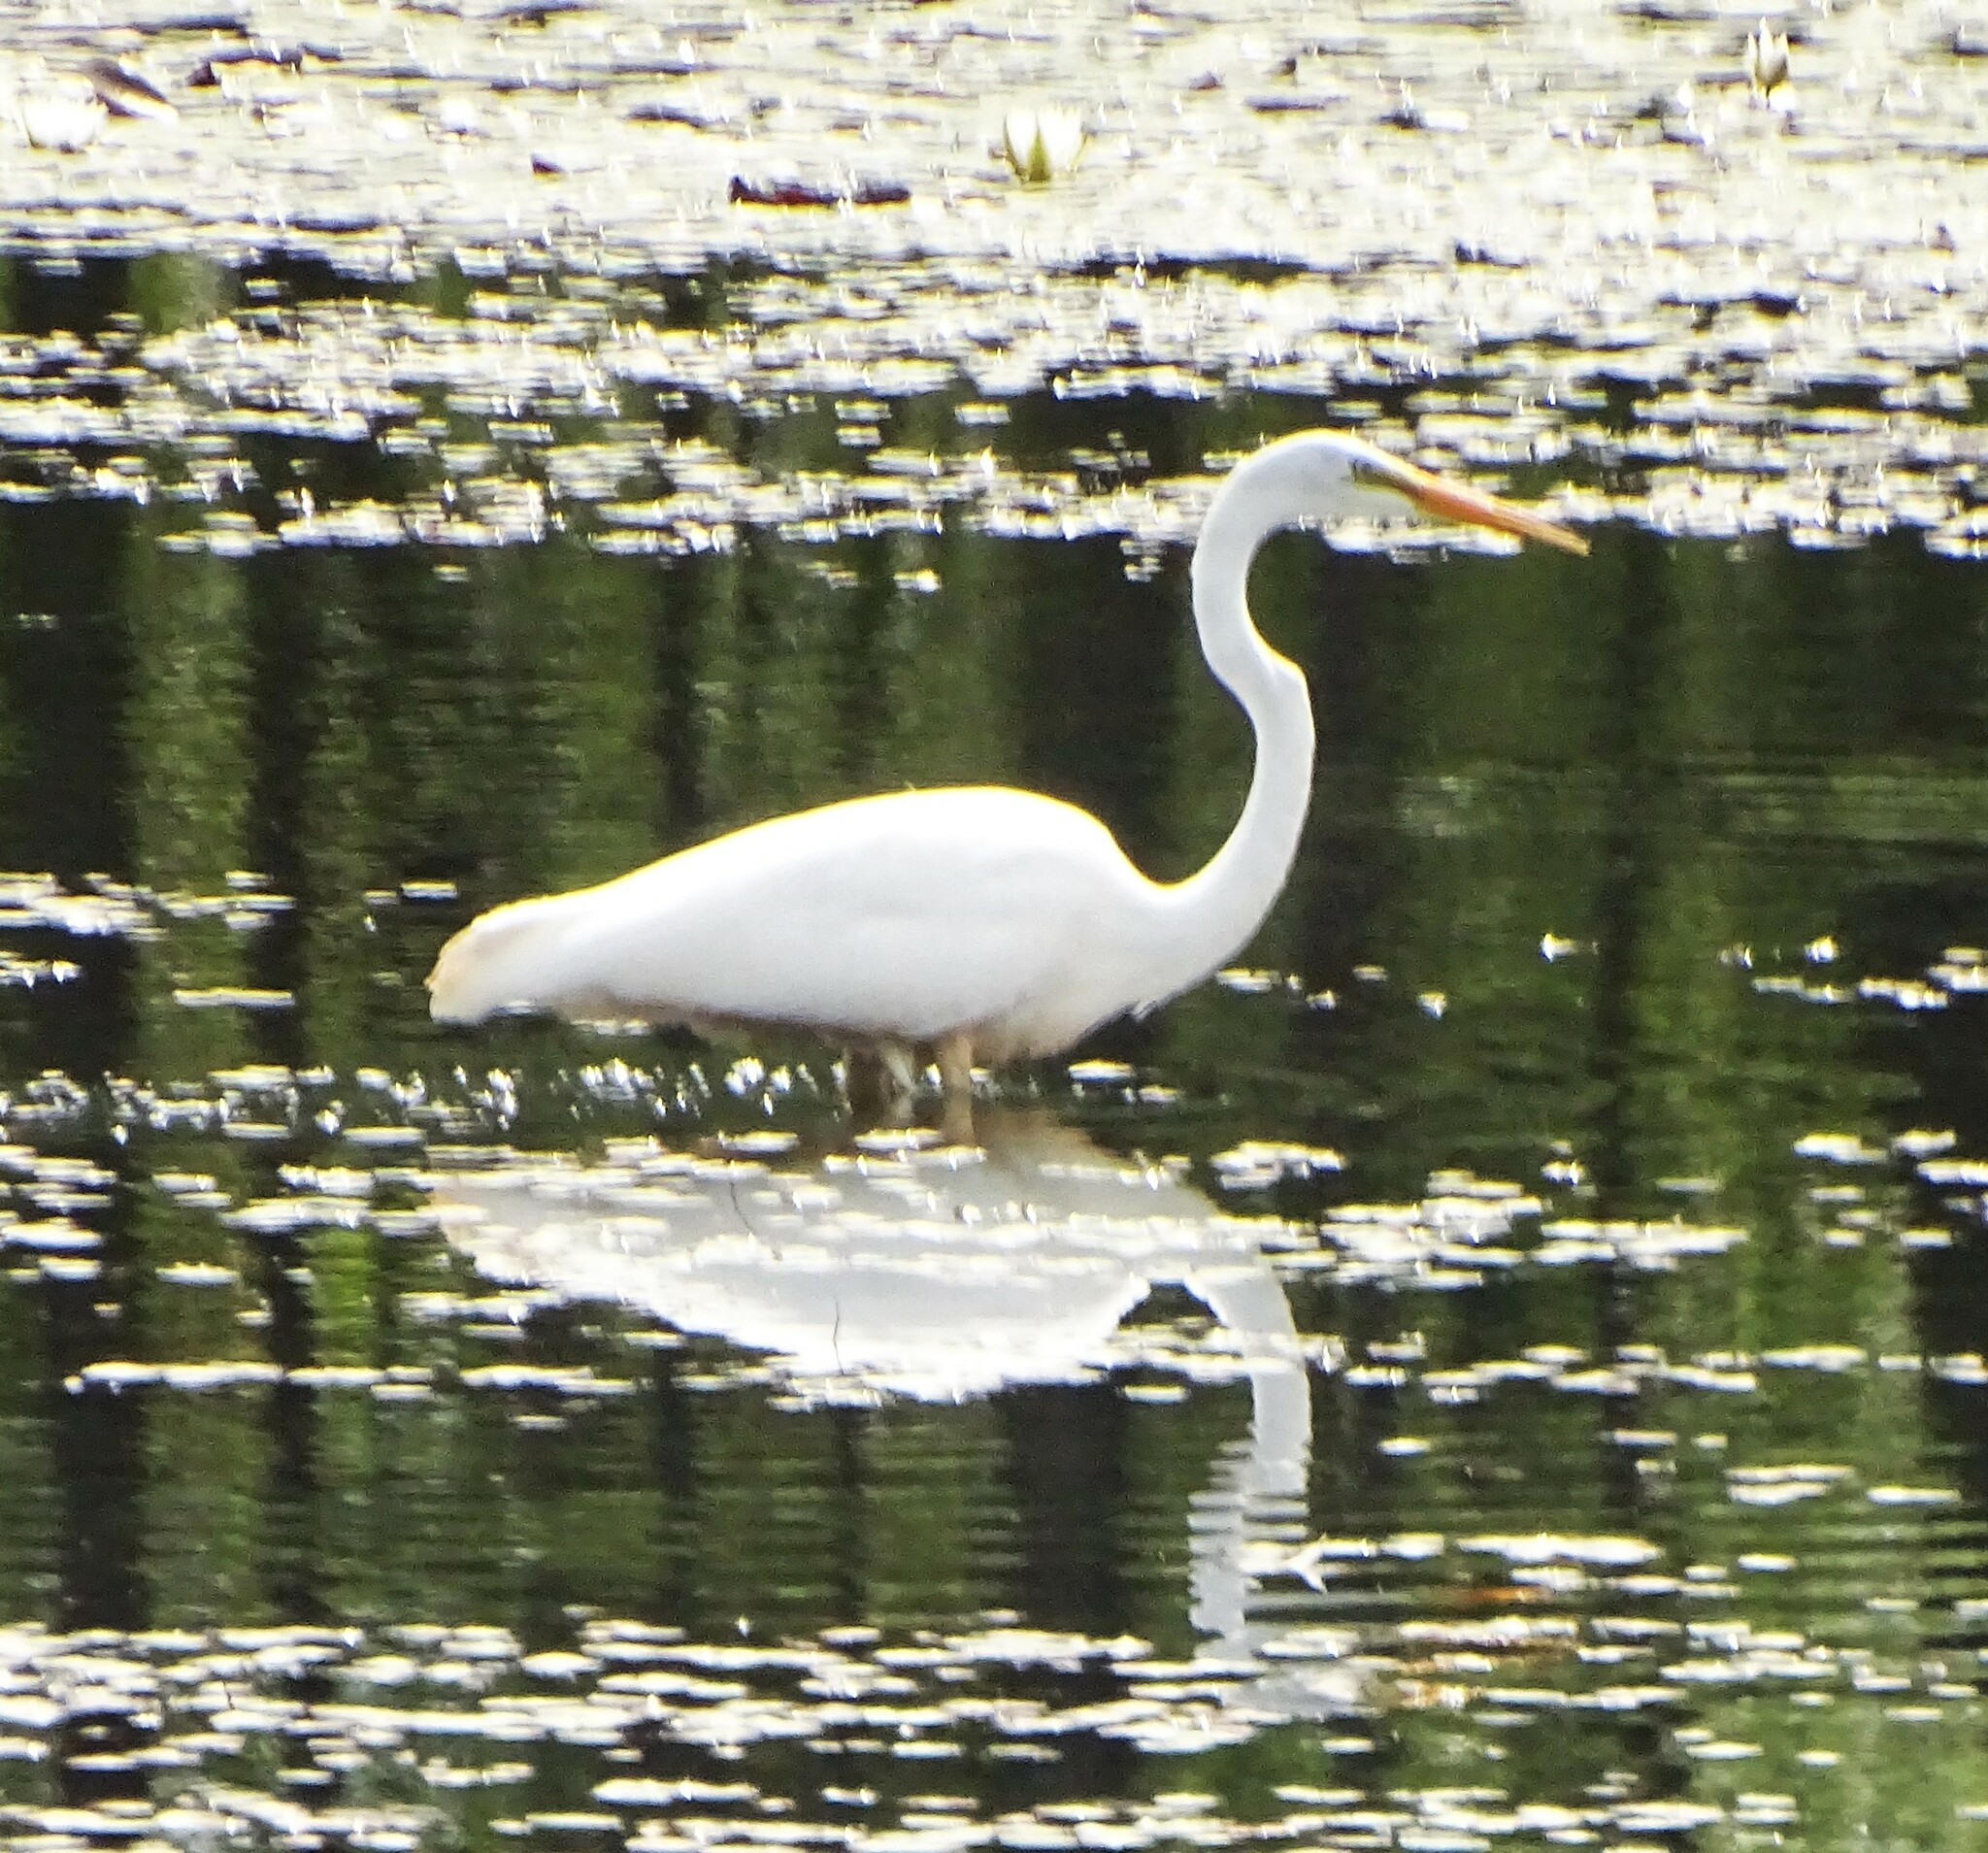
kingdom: Animalia
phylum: Chordata
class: Aves
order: Pelecaniformes
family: Ardeidae
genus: Ardea
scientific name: Ardea alba
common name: Great egret
